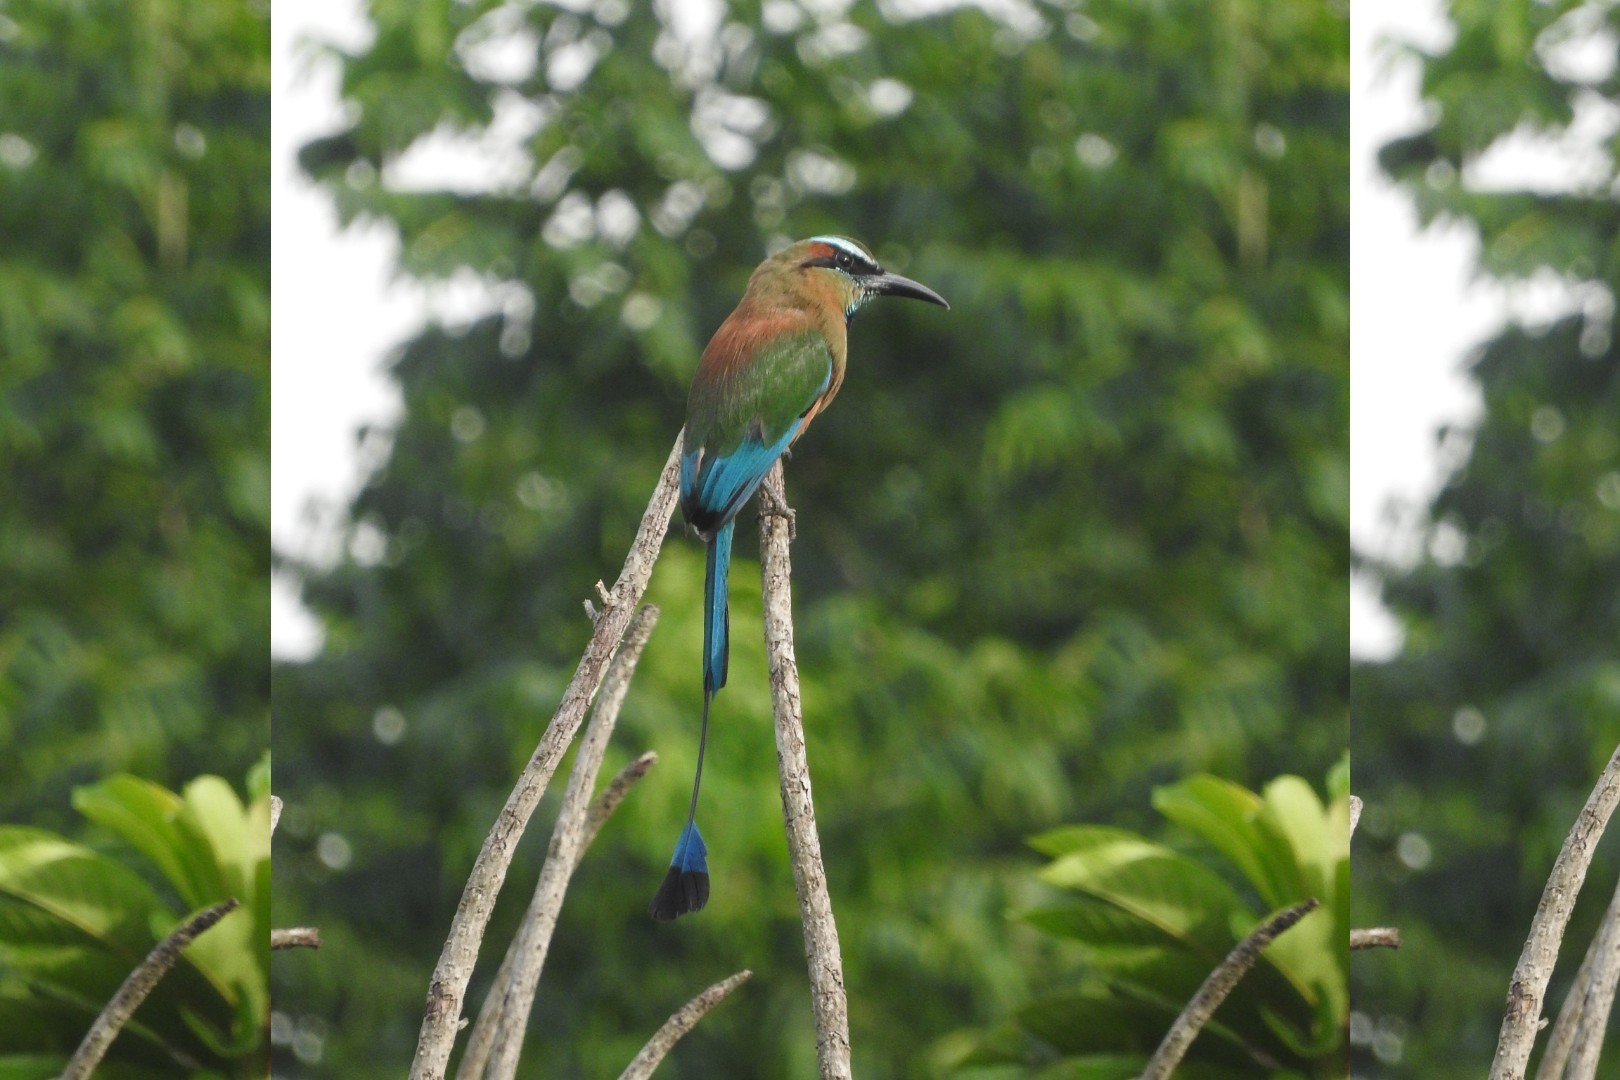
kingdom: Animalia
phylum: Chordata
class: Aves
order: Coraciiformes
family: Momotidae
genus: Eumomota
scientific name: Eumomota superciliosa
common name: Turquoise-browed motmot
